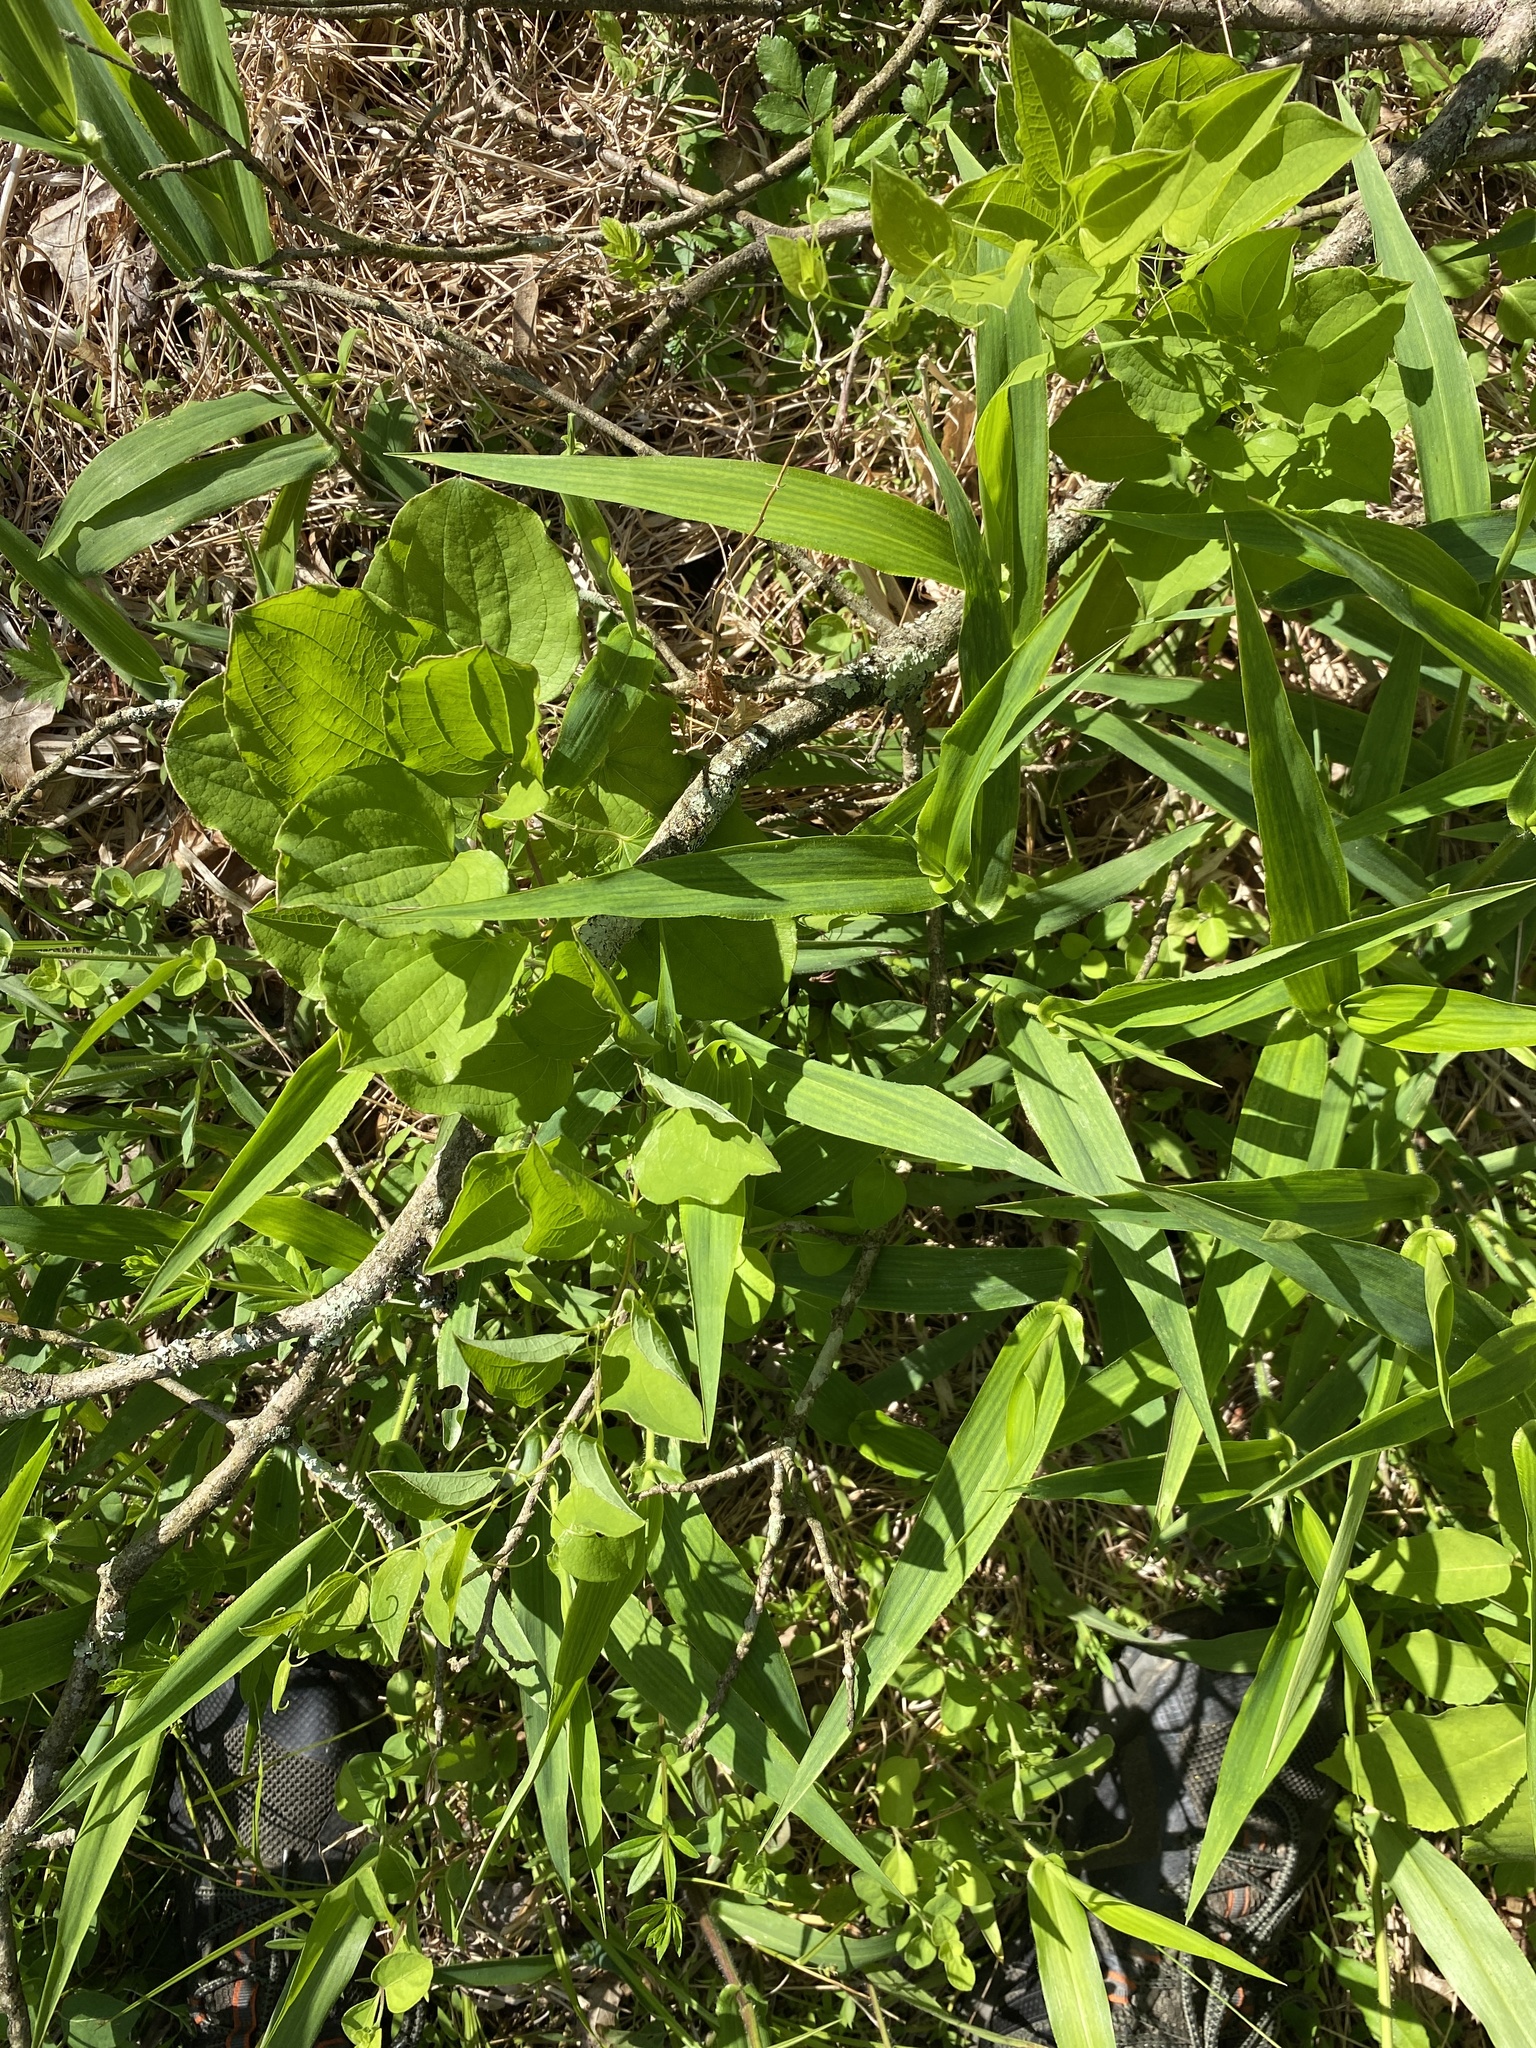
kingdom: Plantae
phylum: Tracheophyta
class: Liliopsida
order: Liliales
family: Smilacaceae
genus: Smilax
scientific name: Smilax herbacea
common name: Jacob's-ladder
